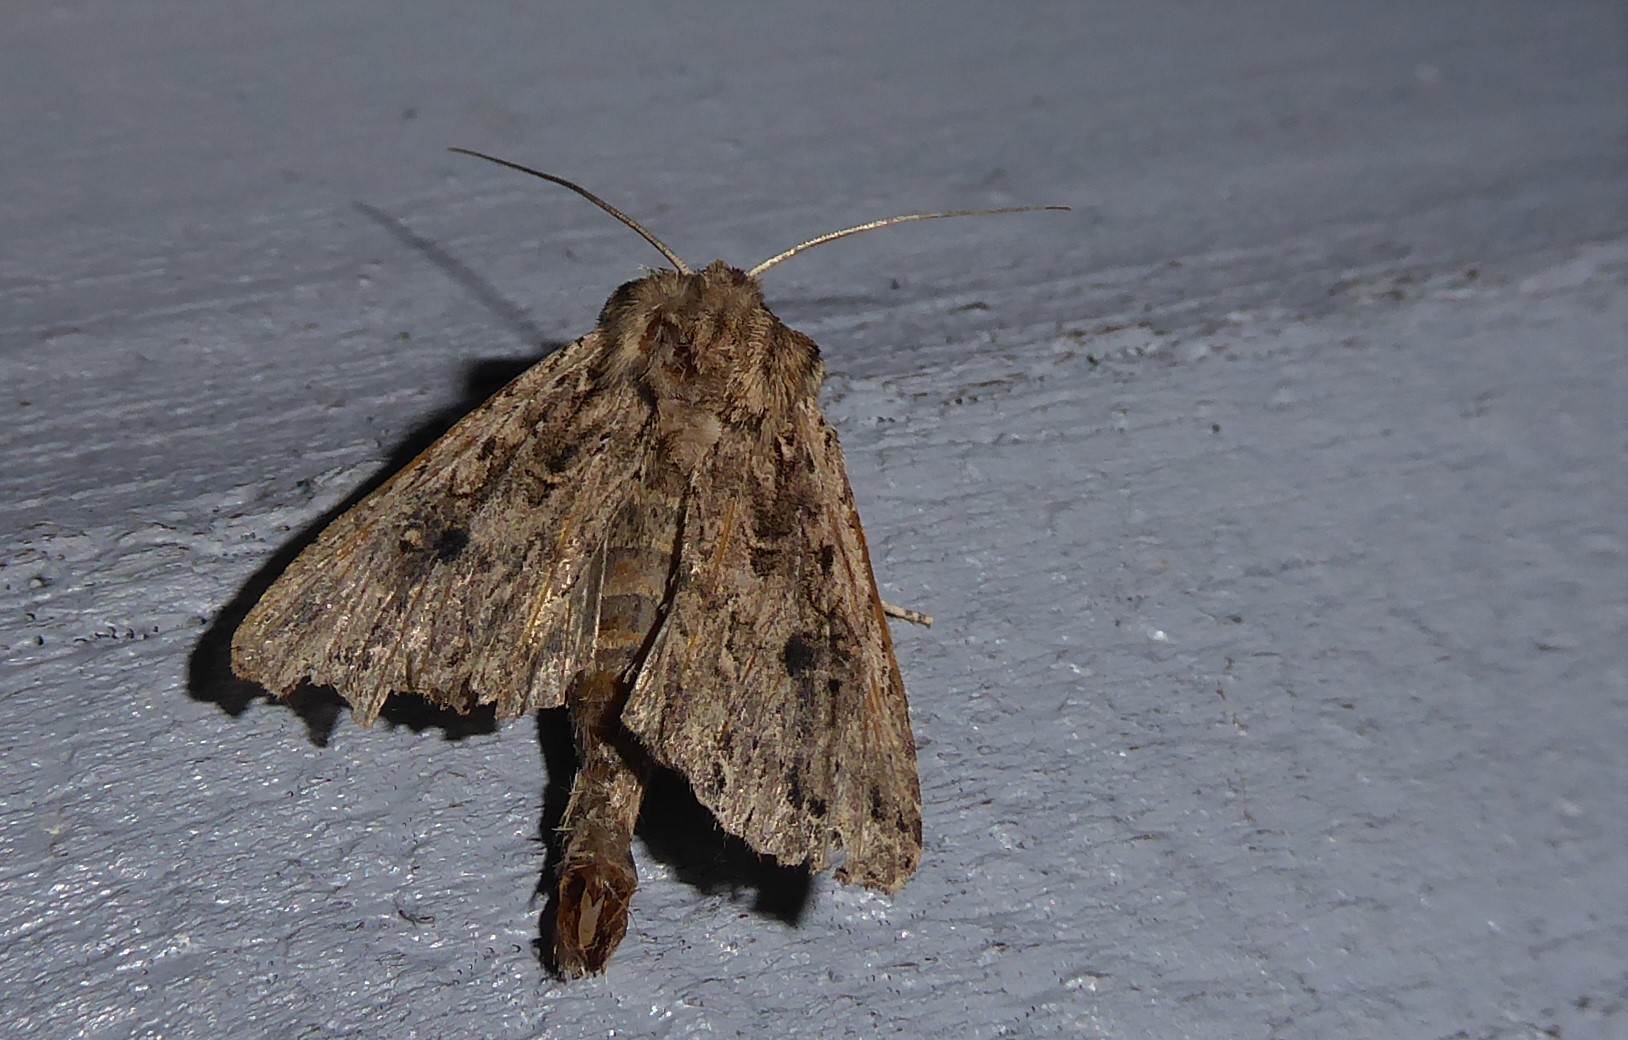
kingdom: Animalia
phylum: Arthropoda
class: Insecta
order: Lepidoptera
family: Noctuidae
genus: Ichneutica
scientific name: Ichneutica lignana
